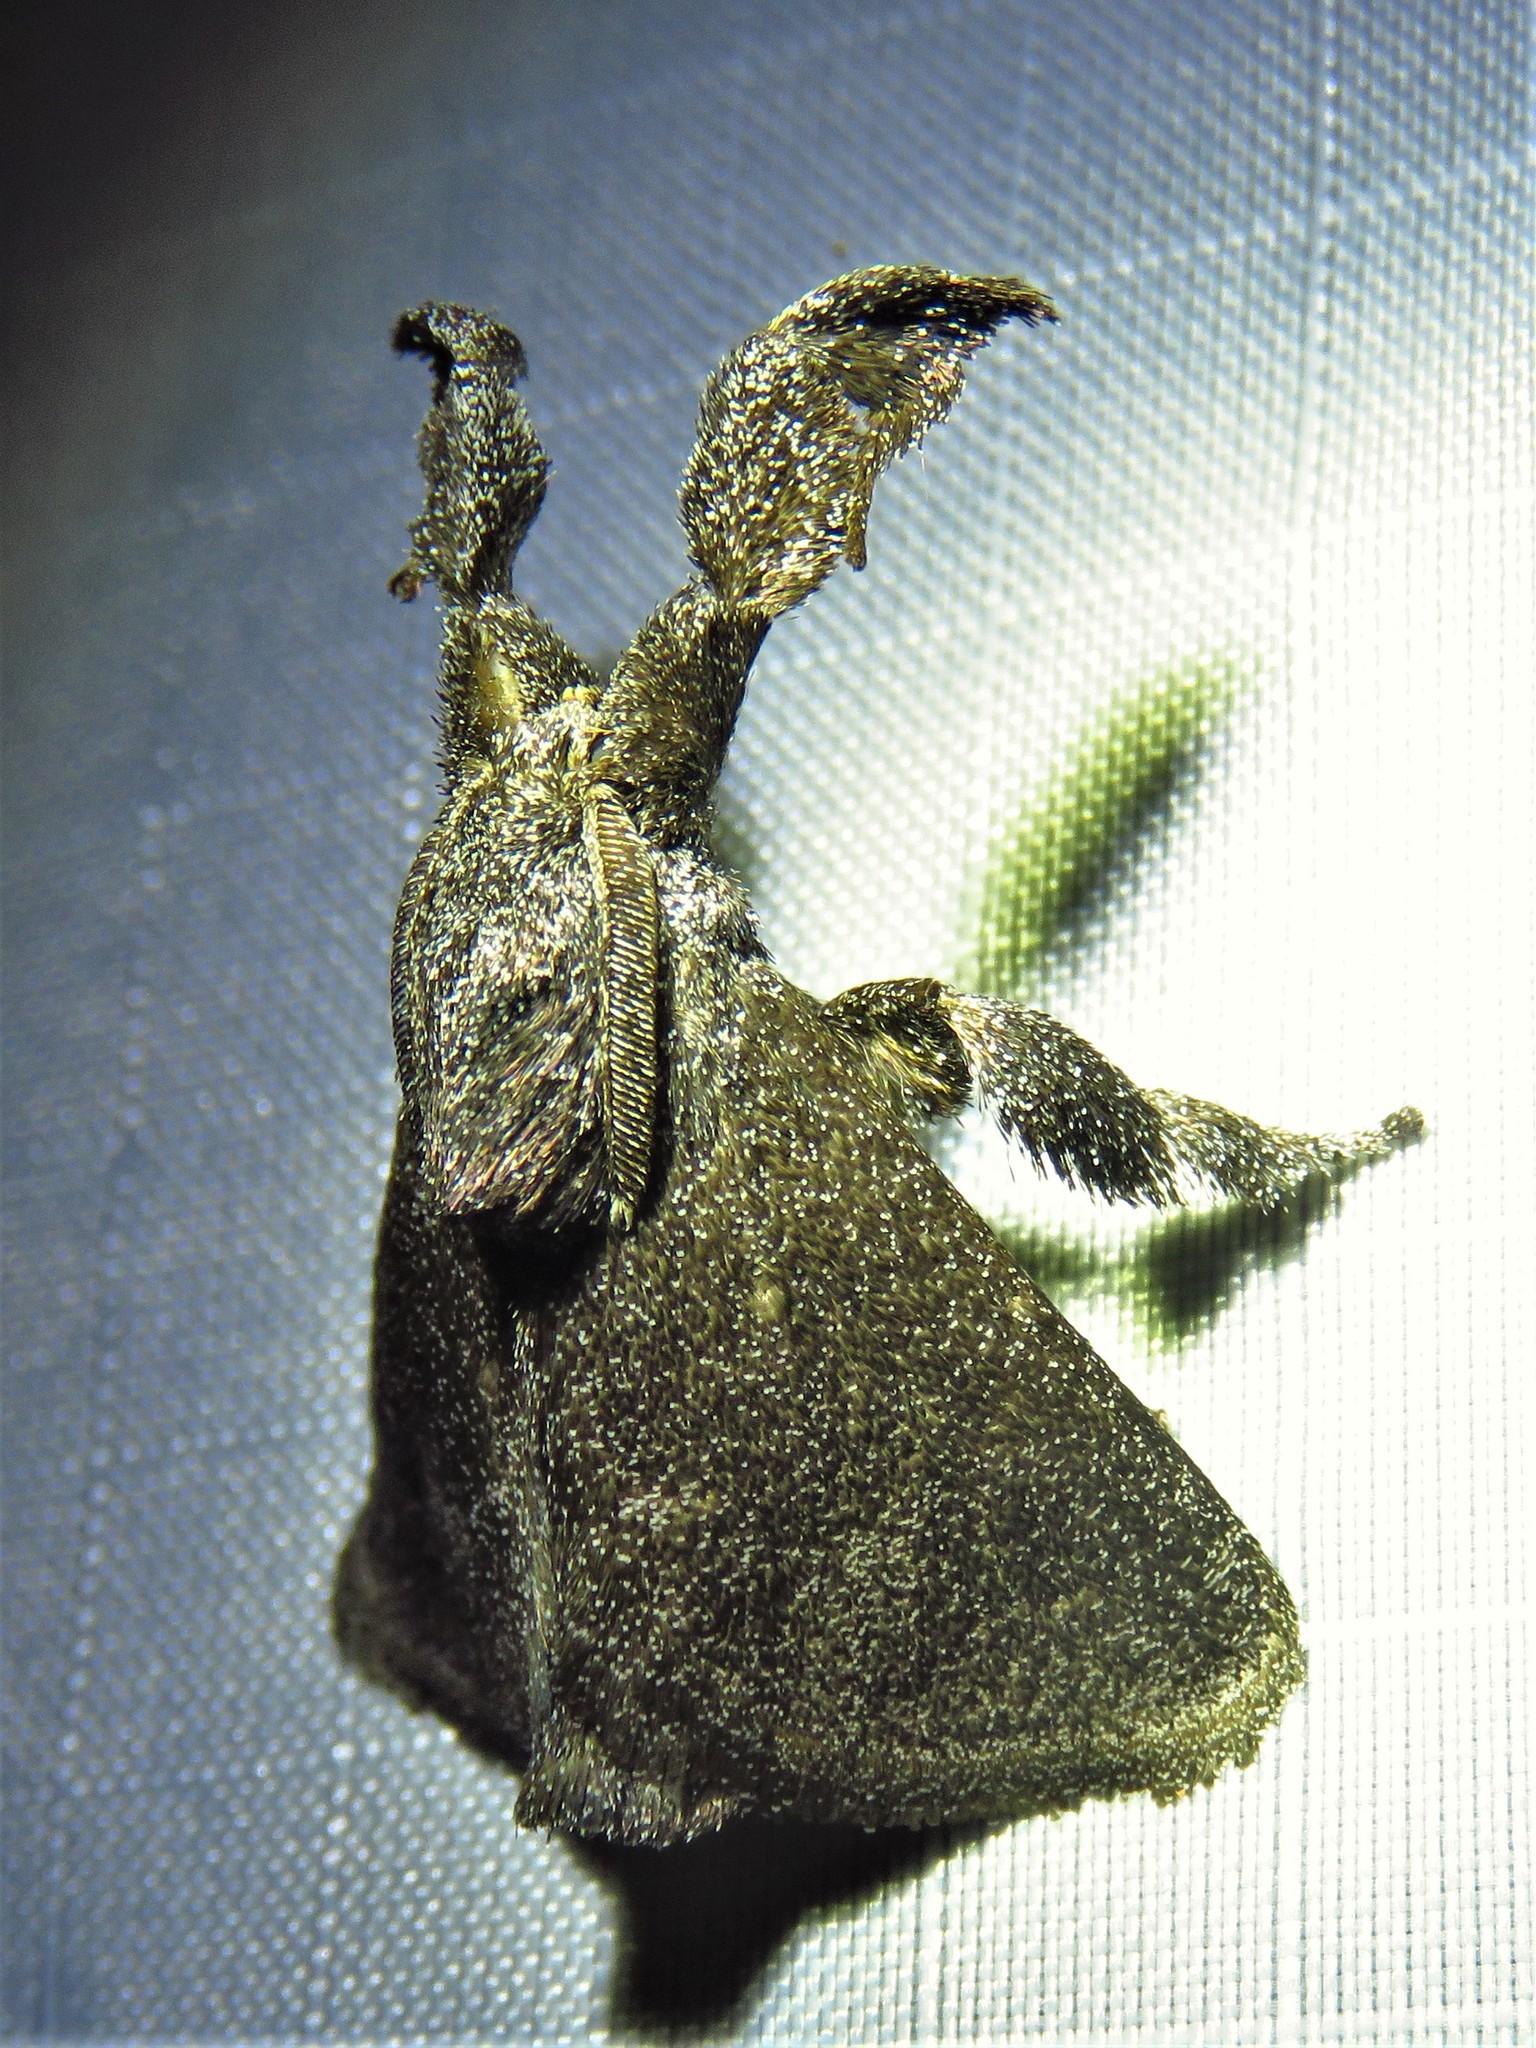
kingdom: Animalia
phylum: Arthropoda
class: Insecta
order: Lepidoptera
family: Limacodidae
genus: Perola
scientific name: Perola repetita
